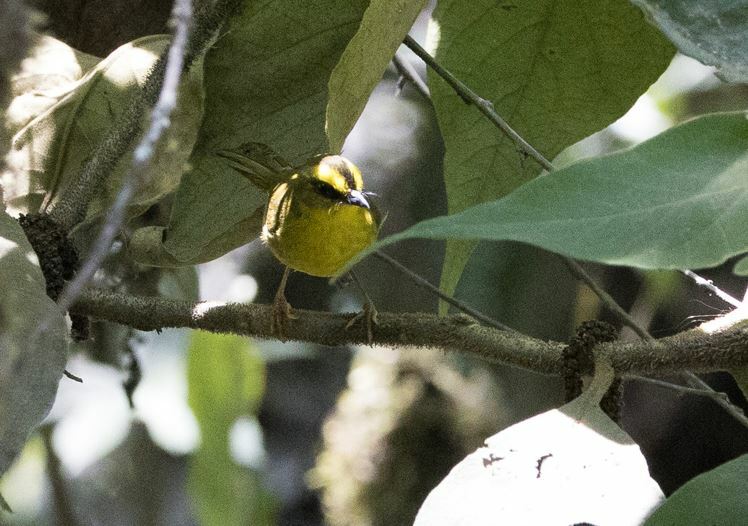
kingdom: Animalia
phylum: Chordata
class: Aves
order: Passeriformes
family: Parulidae
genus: Myiothlypis
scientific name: Myiothlypis luteoviridis
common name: Citrine warbler
